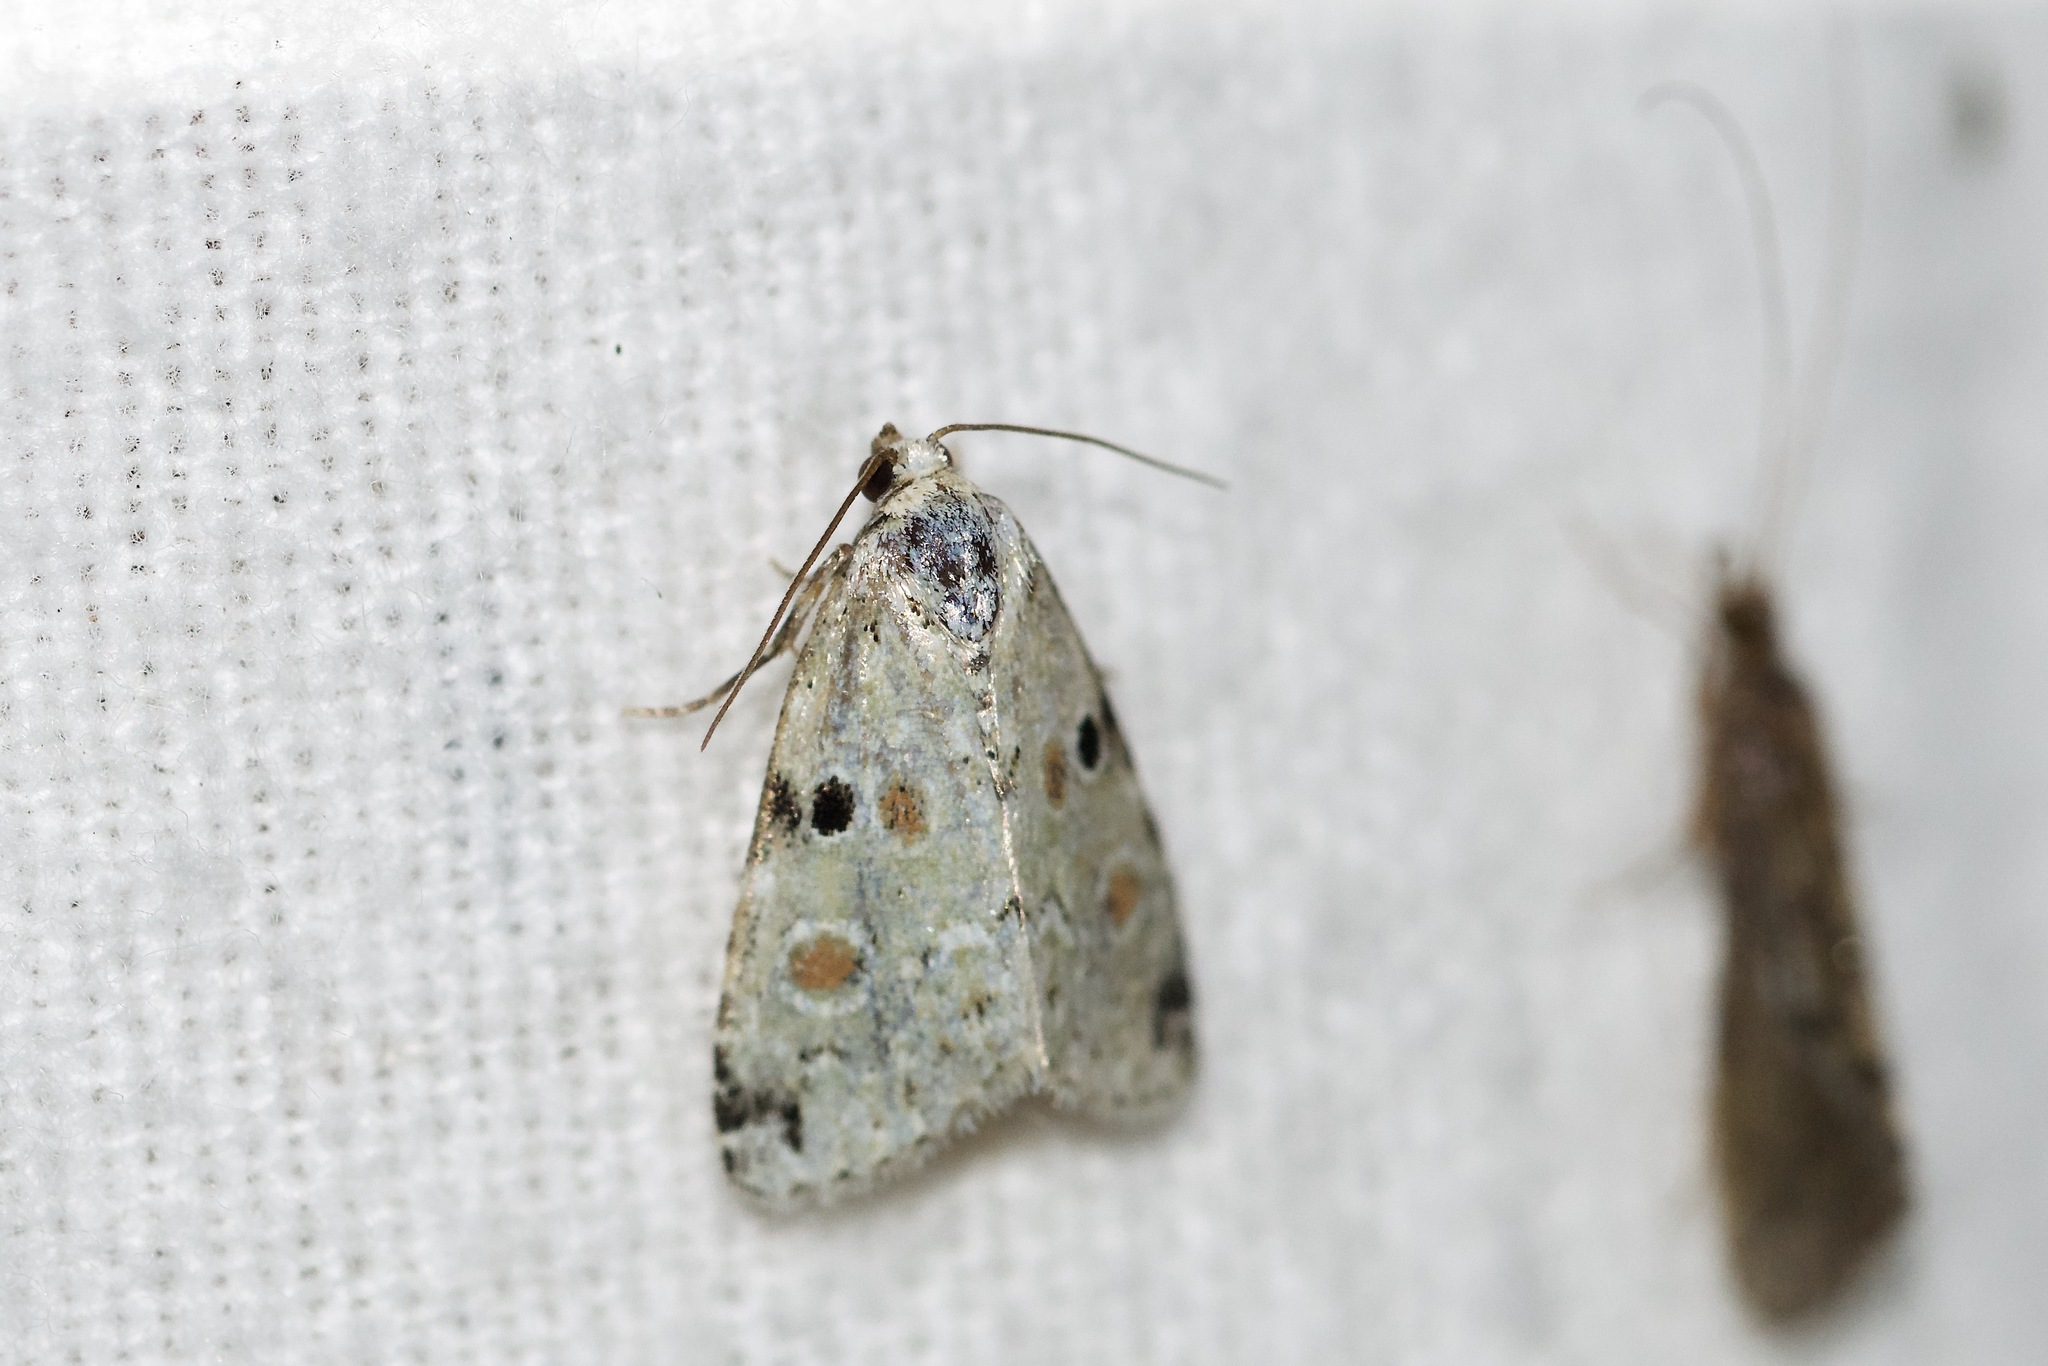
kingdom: Animalia
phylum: Arthropoda
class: Insecta
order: Lepidoptera
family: Noctuidae
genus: Maliattha
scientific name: Maliattha concinnimacula
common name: Red-spotted glyph
